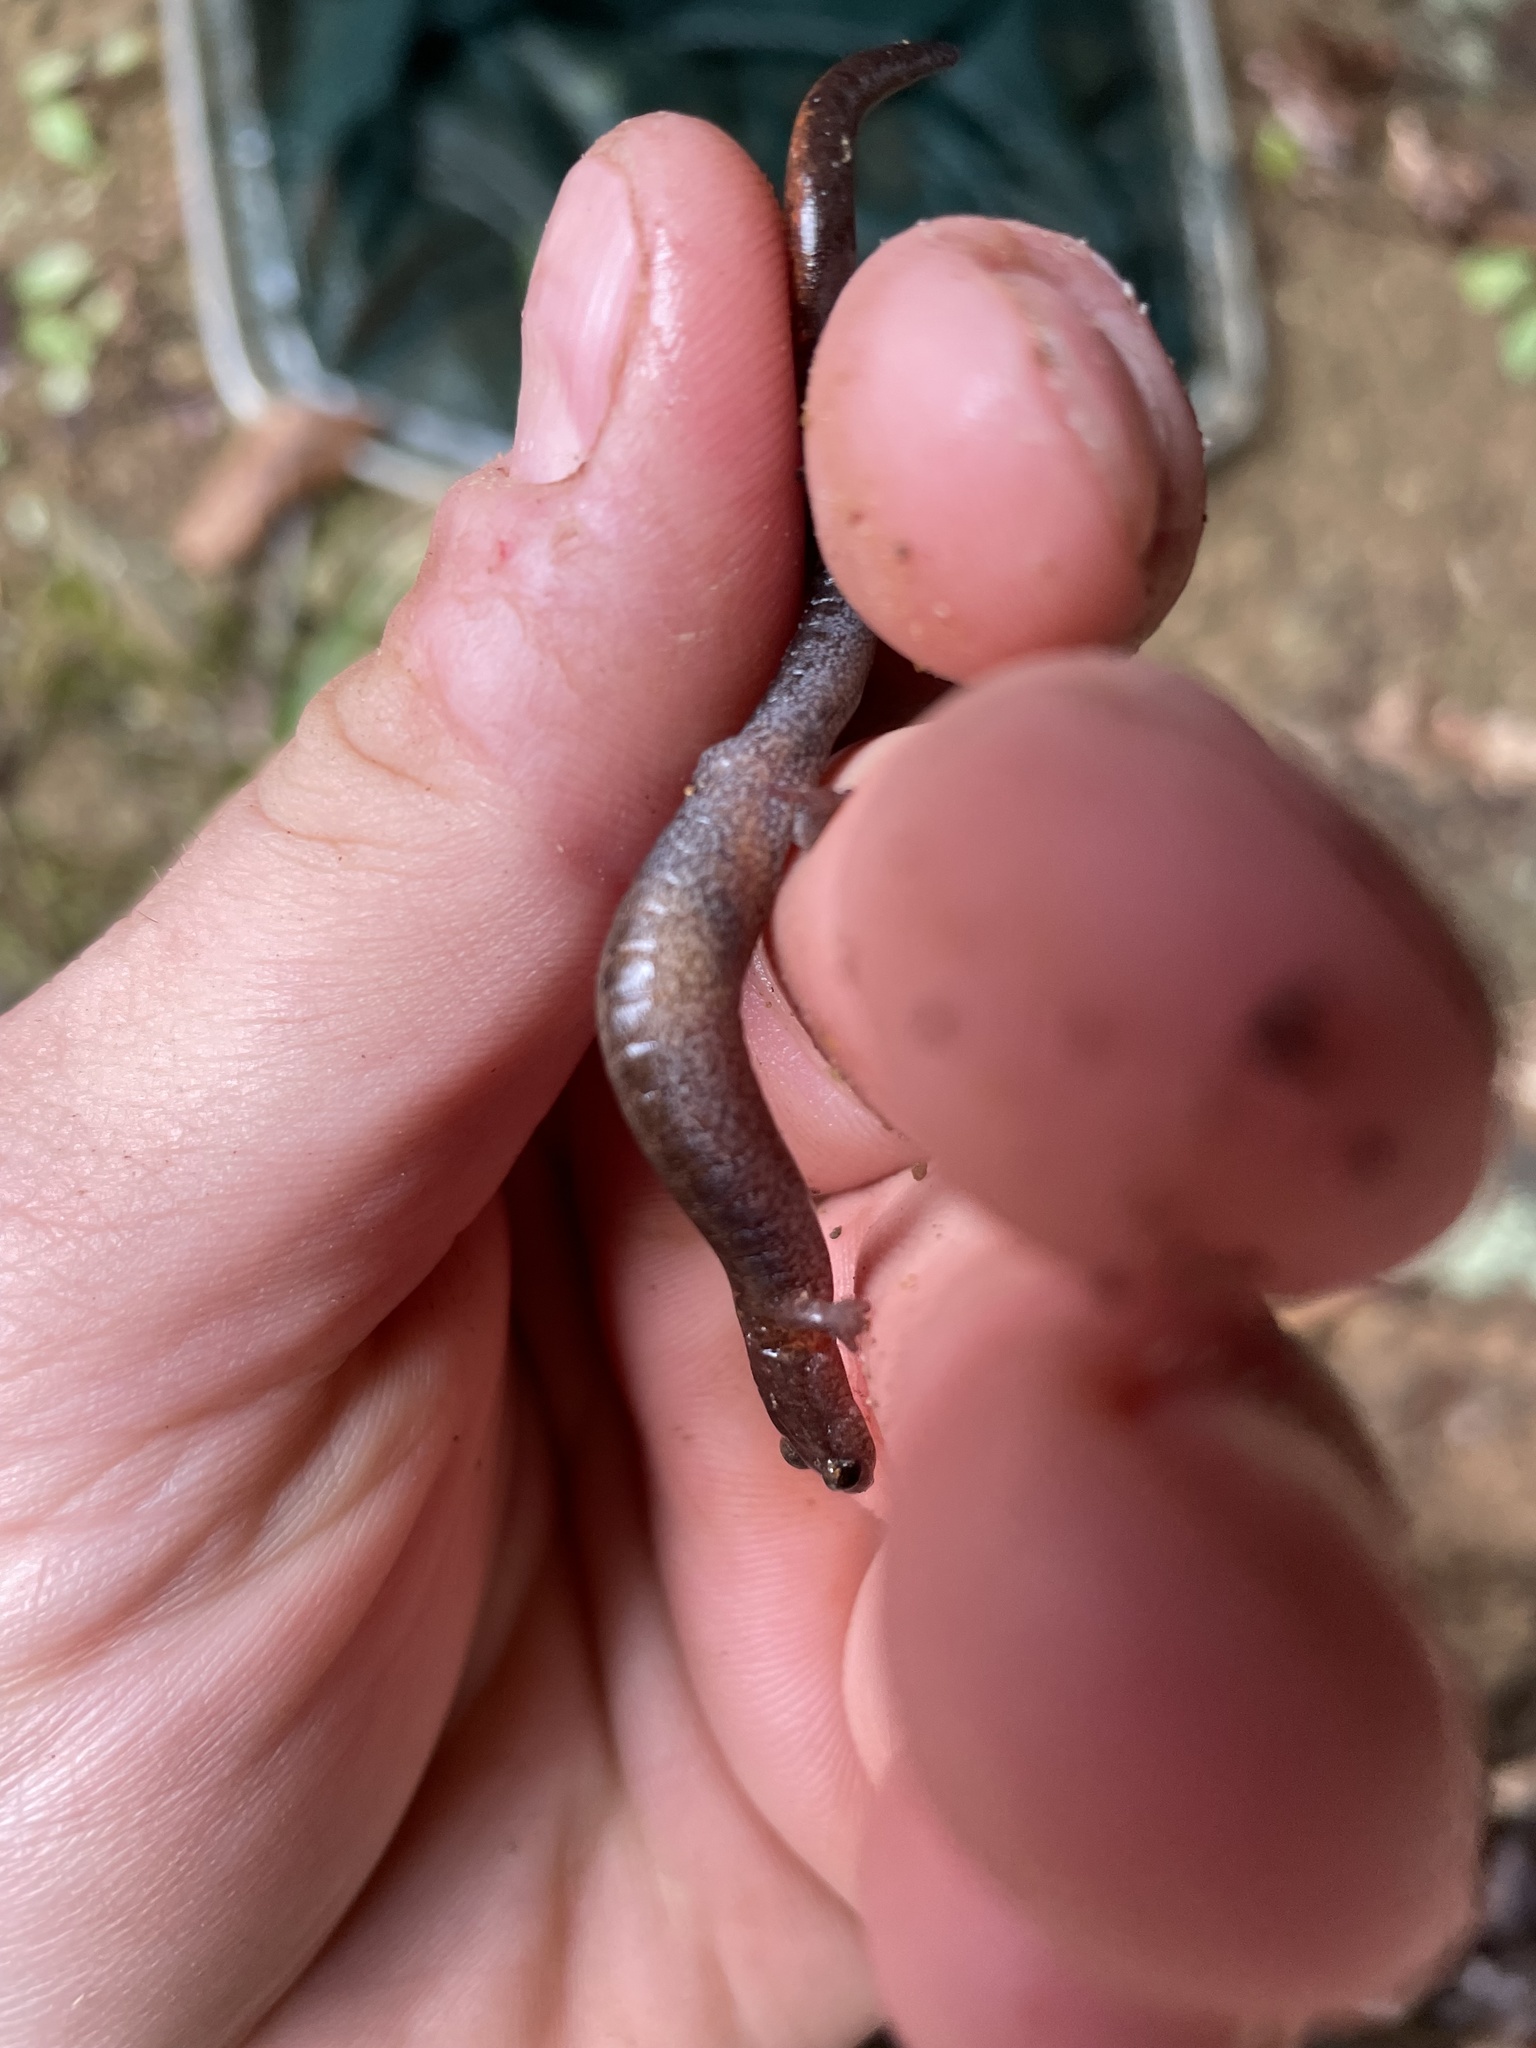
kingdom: Animalia
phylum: Chordata
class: Amphibia
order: Caudata
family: Plethodontidae
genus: Plethodon
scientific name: Plethodon ventralis
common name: Southern zigzag salamander
